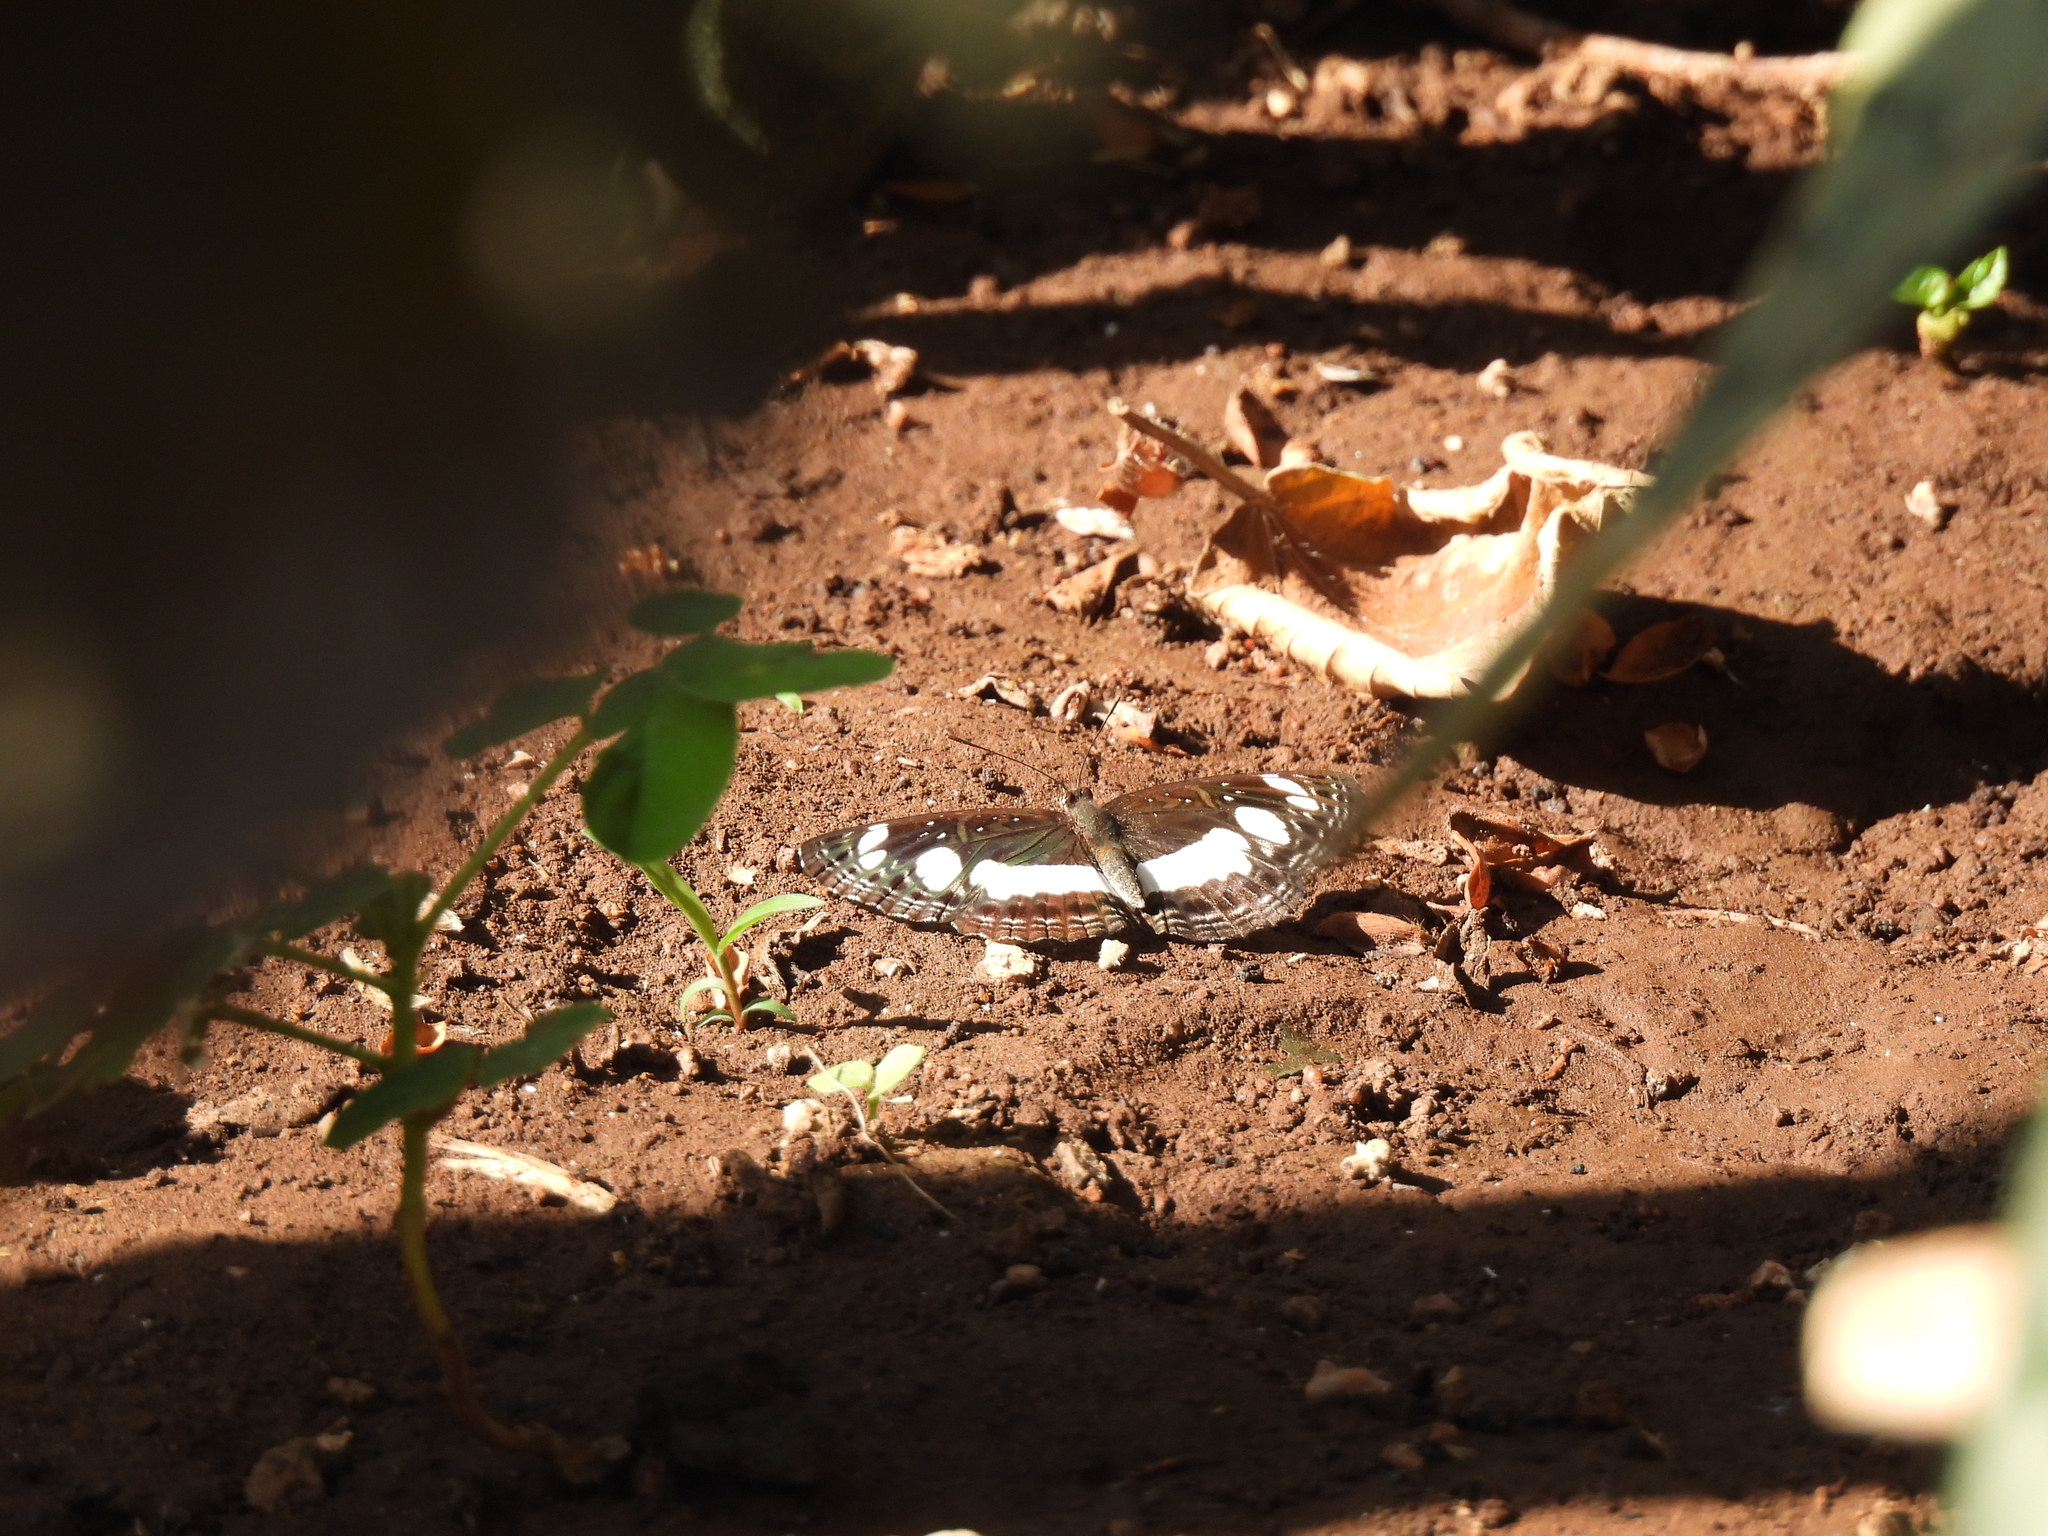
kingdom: Animalia
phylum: Arthropoda
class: Insecta
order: Lepidoptera
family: Nymphalidae
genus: Neptis
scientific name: Neptis saclava
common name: Small spotted sailor
